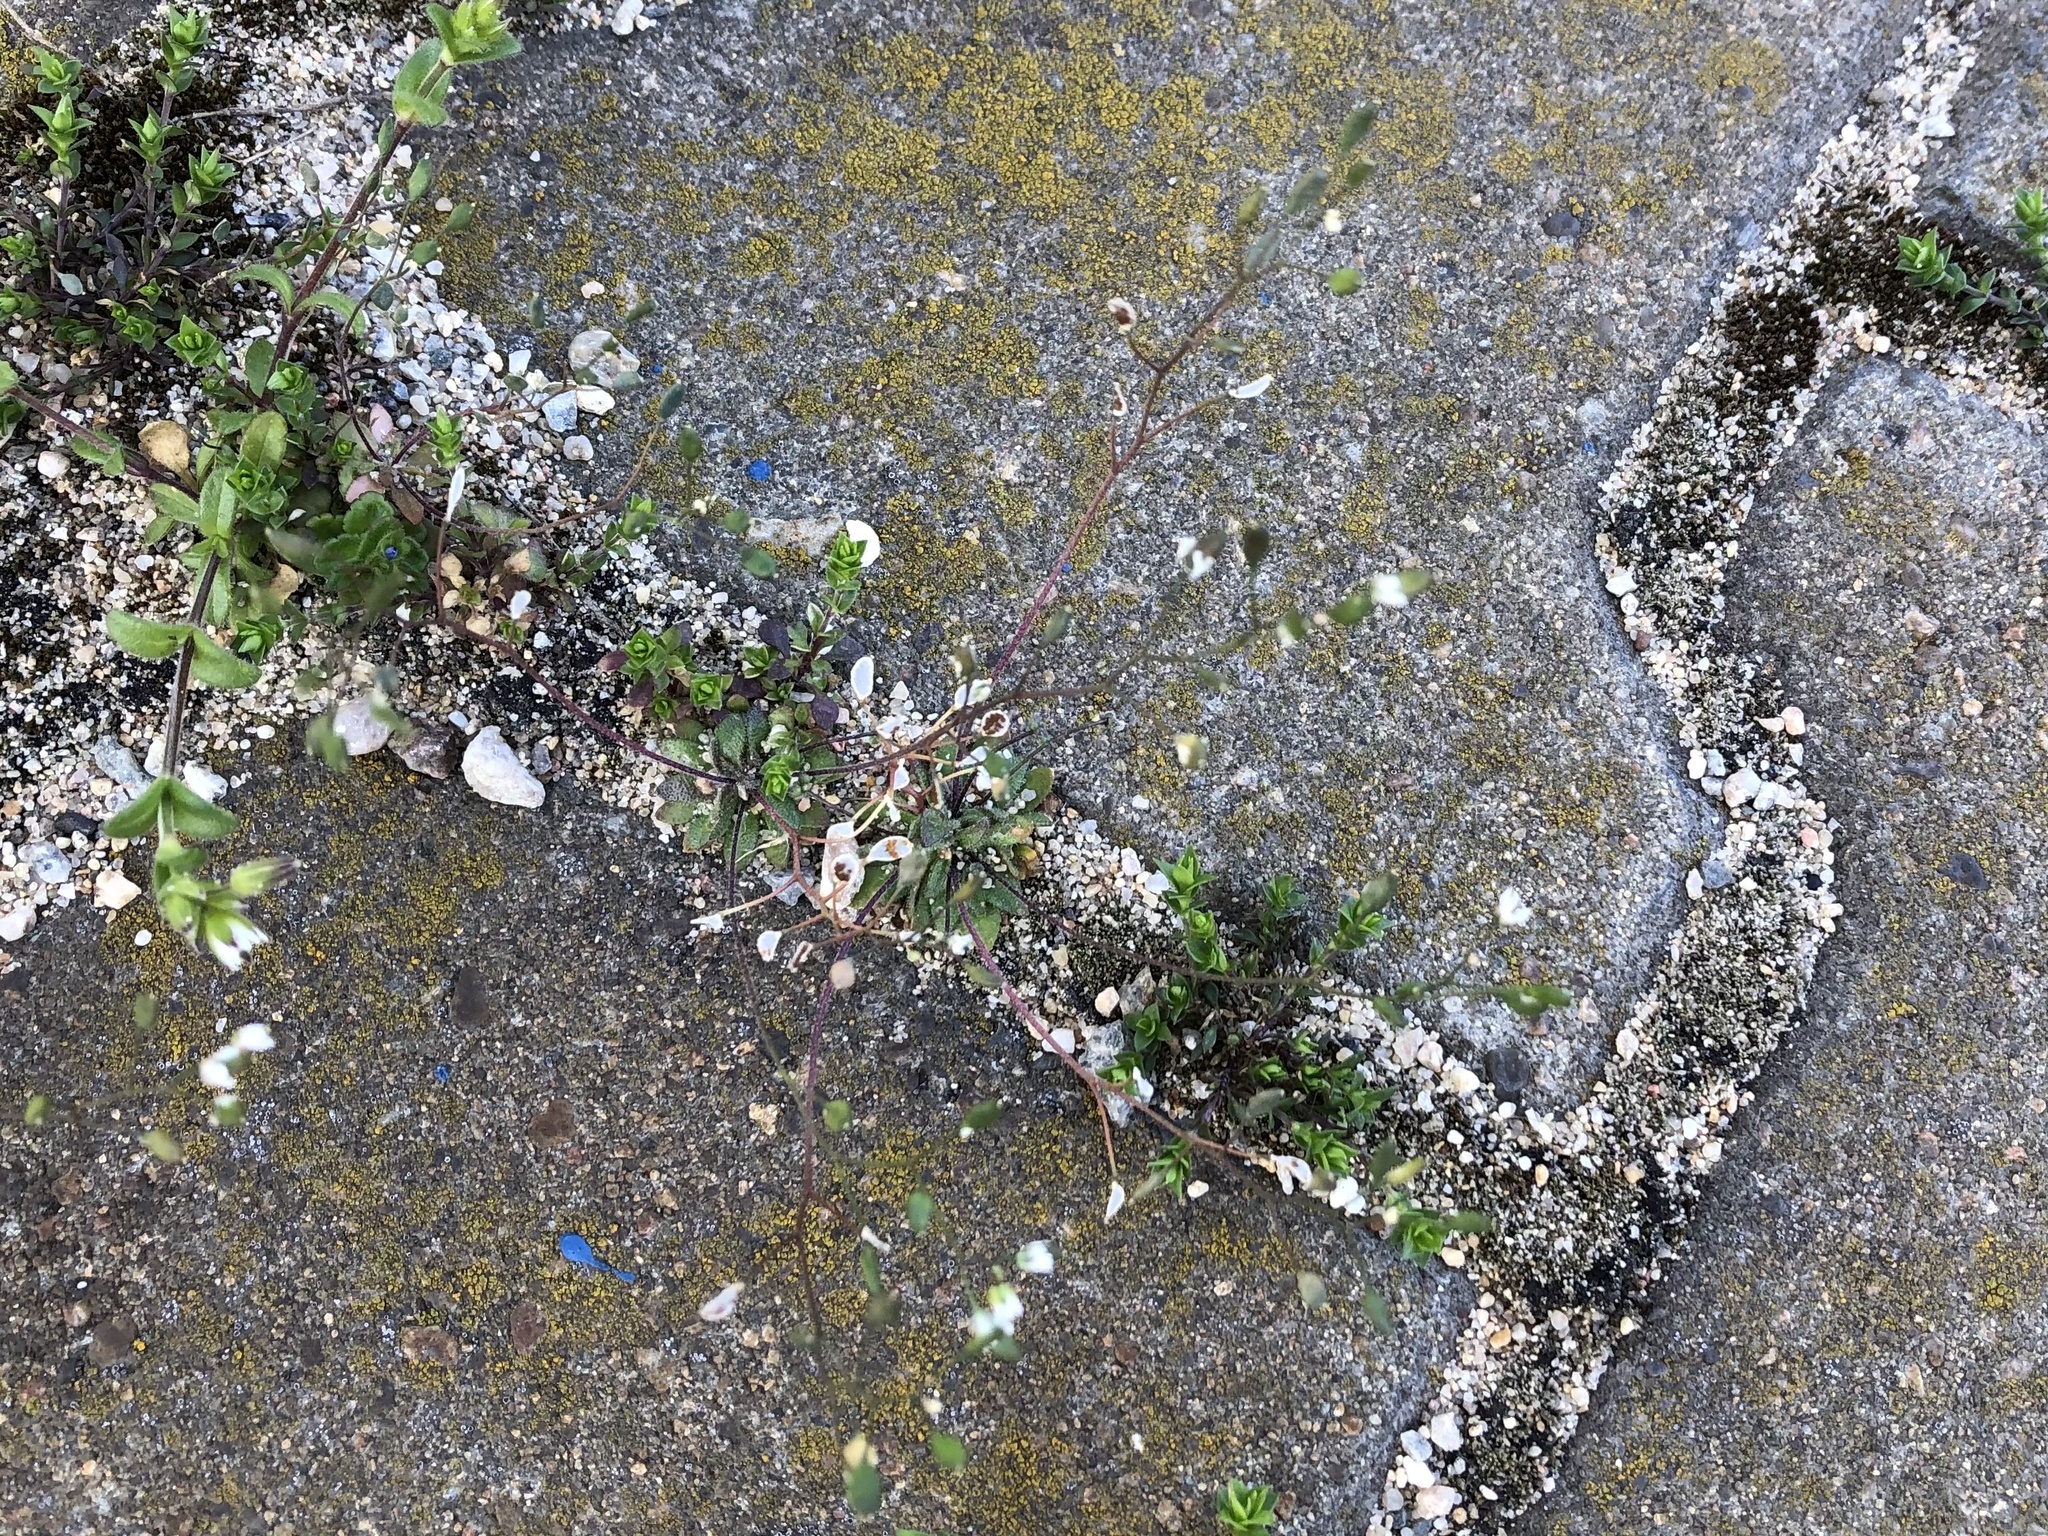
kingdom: Plantae
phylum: Tracheophyta
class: Magnoliopsida
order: Brassicales
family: Brassicaceae
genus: Draba
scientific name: Draba verna
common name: Spring draba
